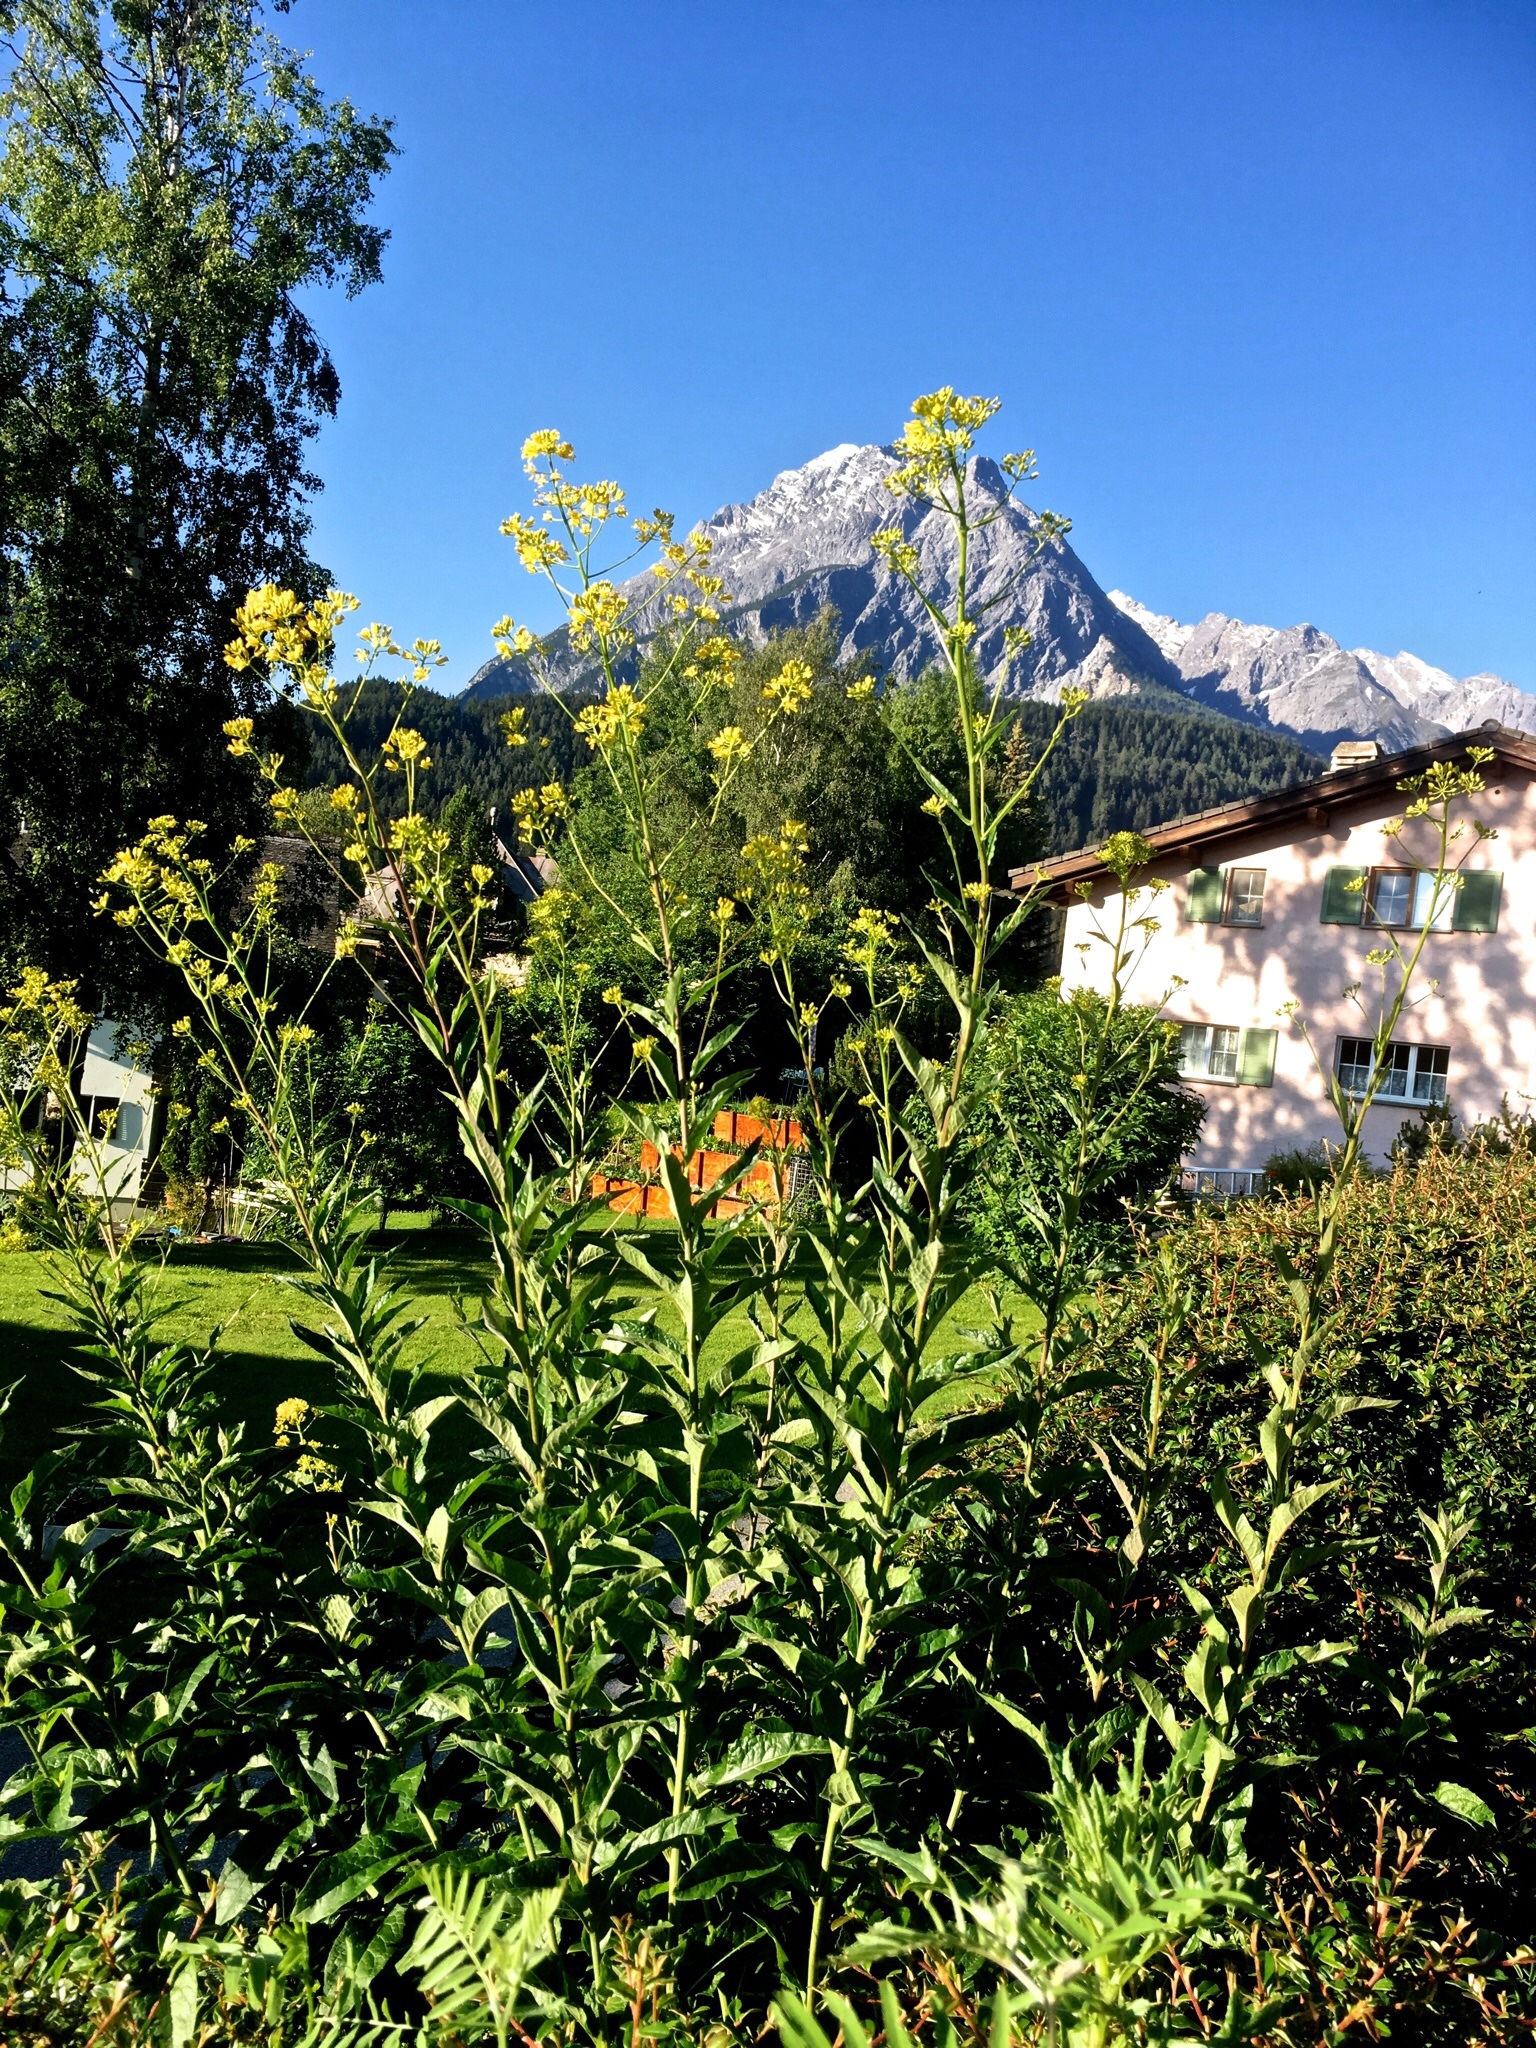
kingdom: Plantae
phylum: Tracheophyta
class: Magnoliopsida
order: Brassicales
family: Brassicaceae
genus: Sisymbrium
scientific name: Sisymbrium strictissimum
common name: Perennial rocket
